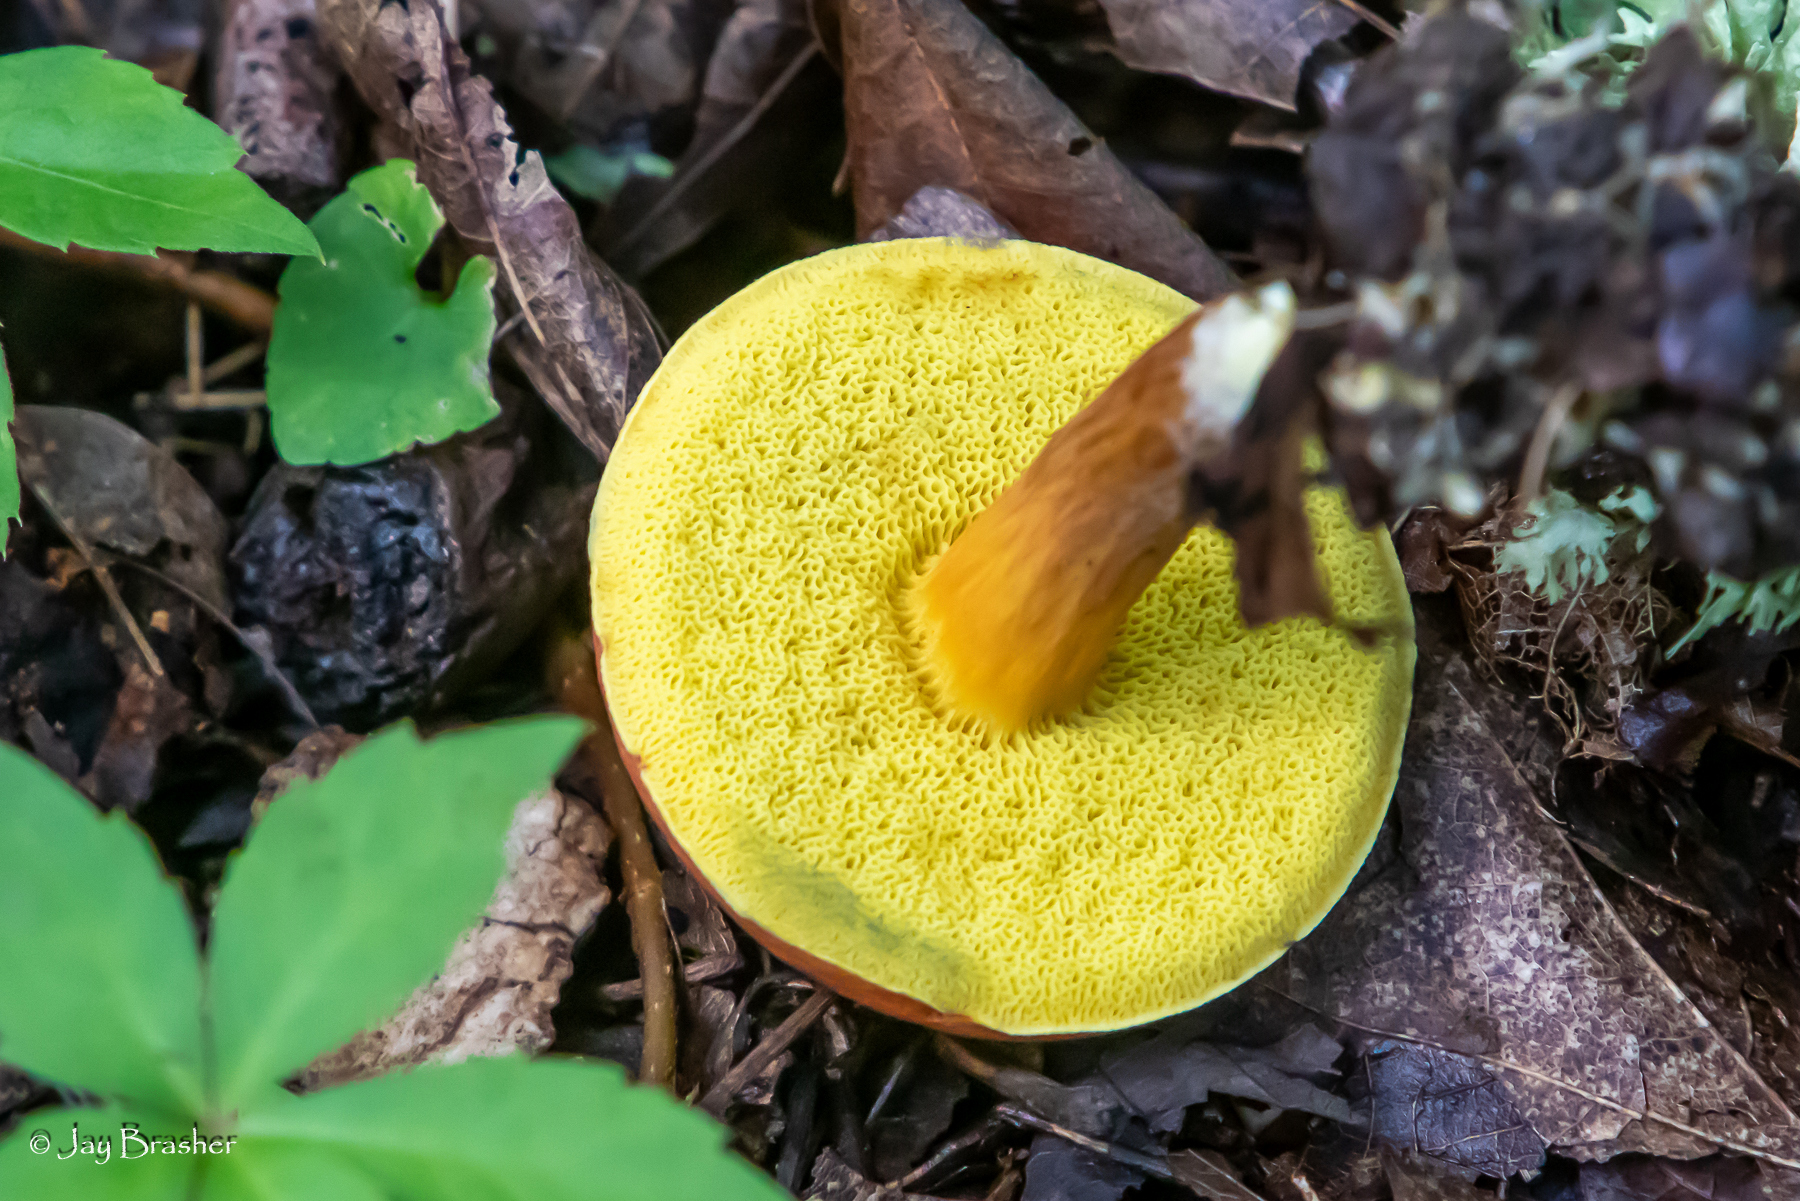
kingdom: Fungi
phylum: Basidiomycota
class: Agaricomycetes
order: Boletales
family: Boletaceae
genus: Hortiboletus
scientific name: Hortiboletus rubellus
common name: Ruby bolete
